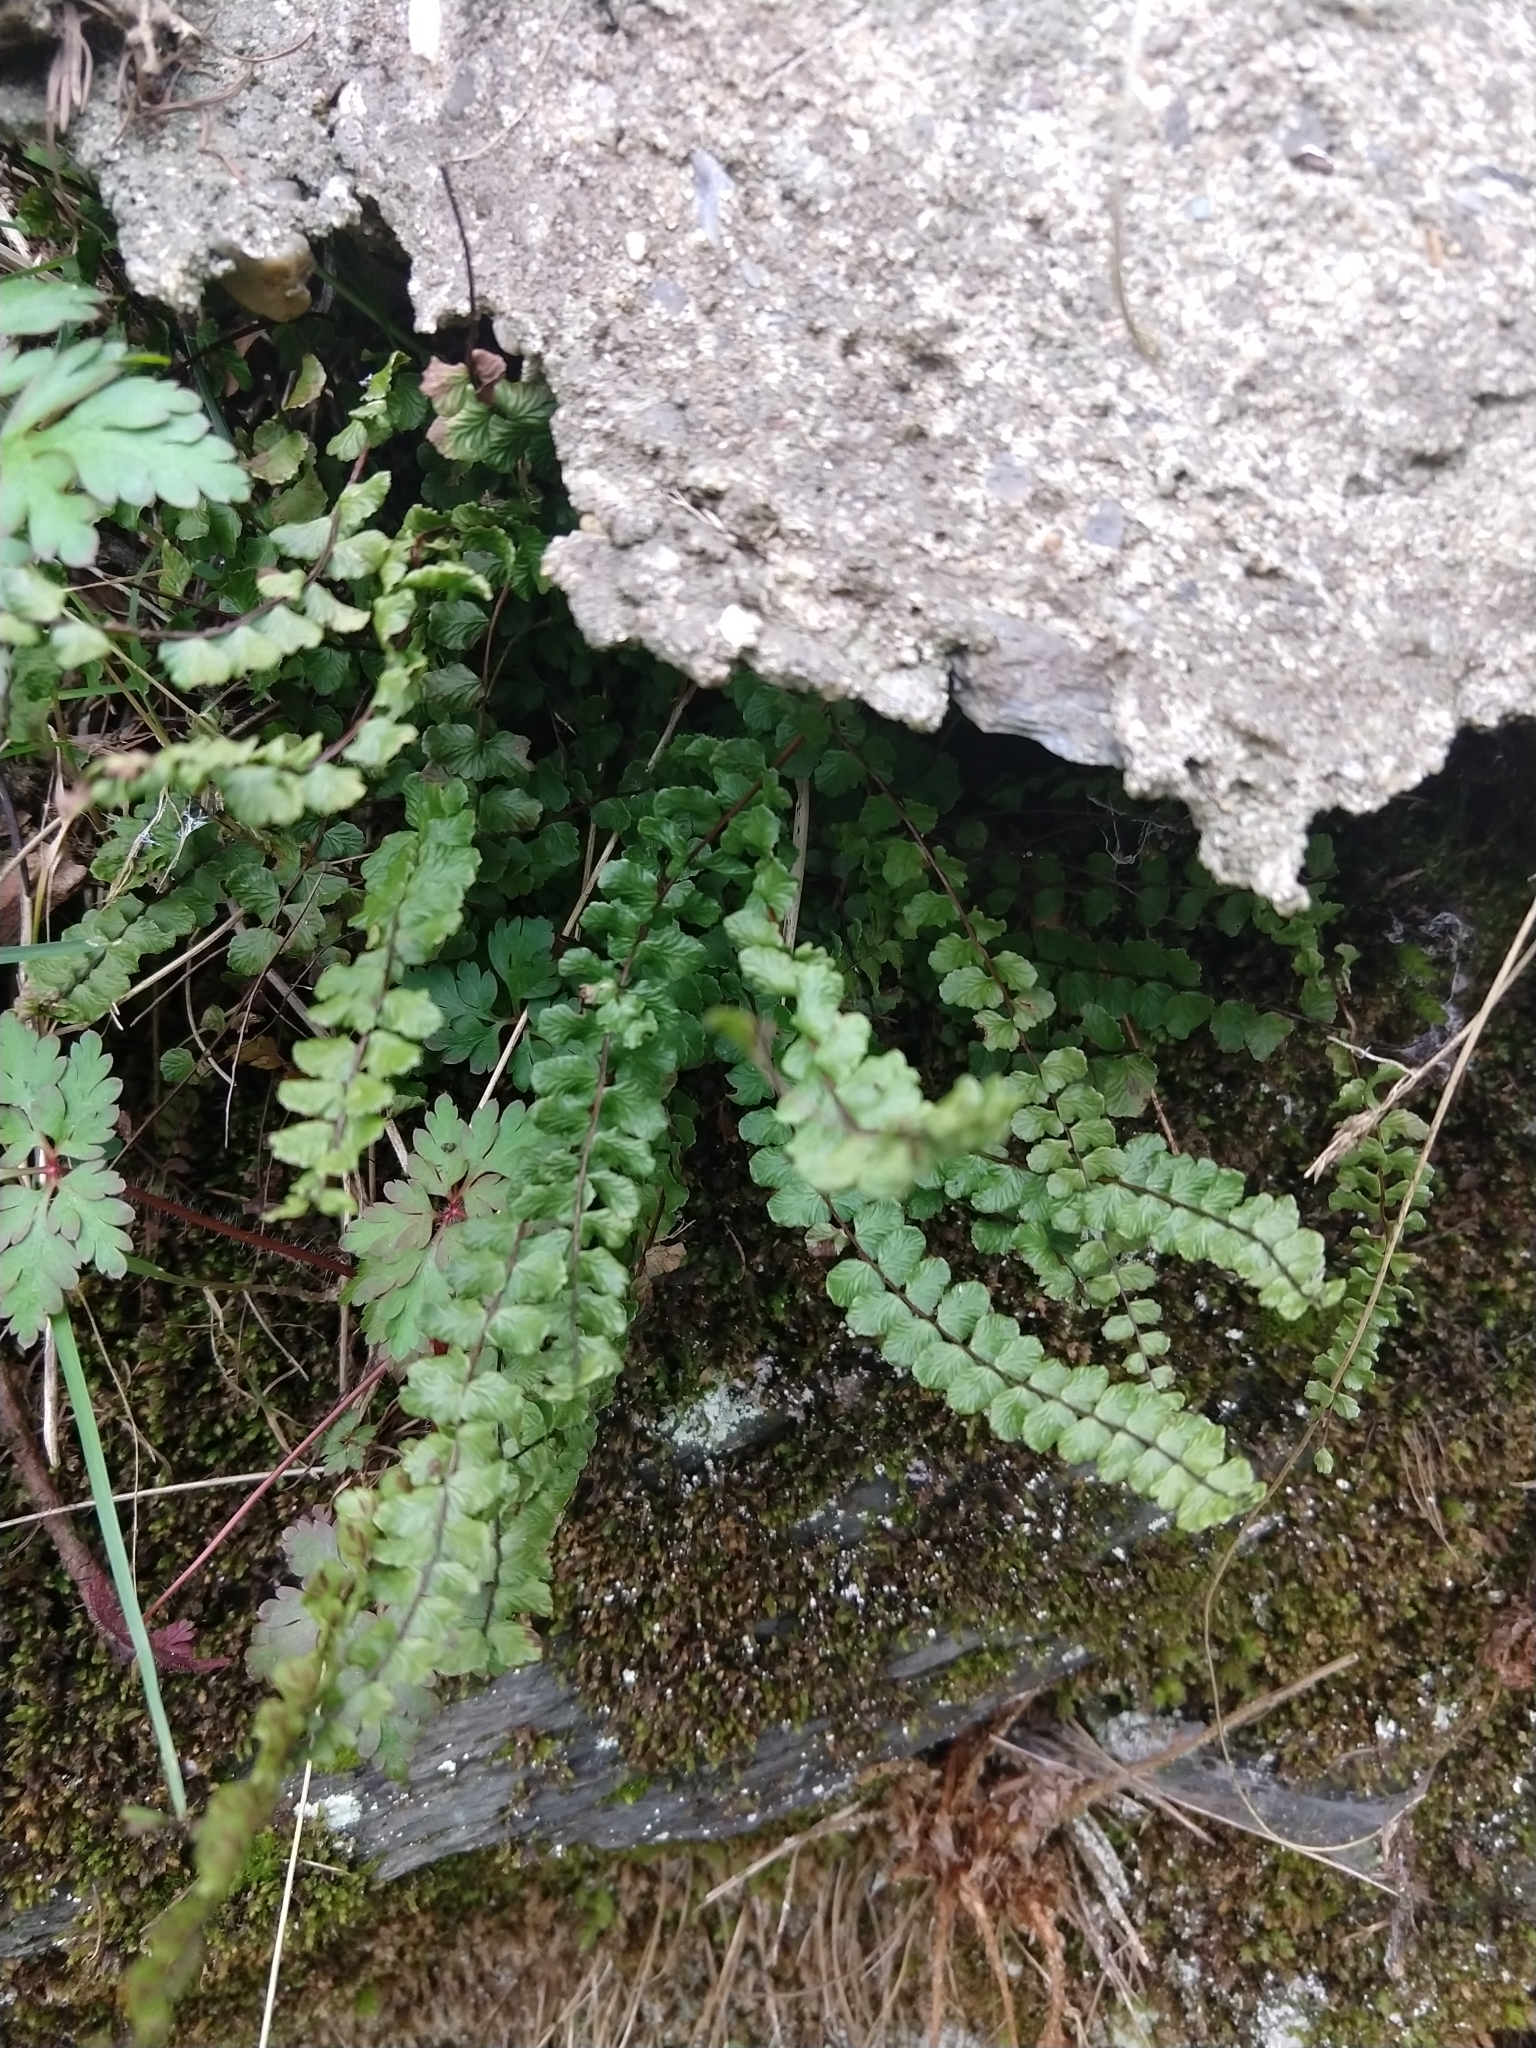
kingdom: Plantae
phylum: Tracheophyta
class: Polypodiopsida
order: Polypodiales
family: Aspleniaceae
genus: Asplenium
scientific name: Asplenium trichomanes
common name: Maidenhair spleenwort
